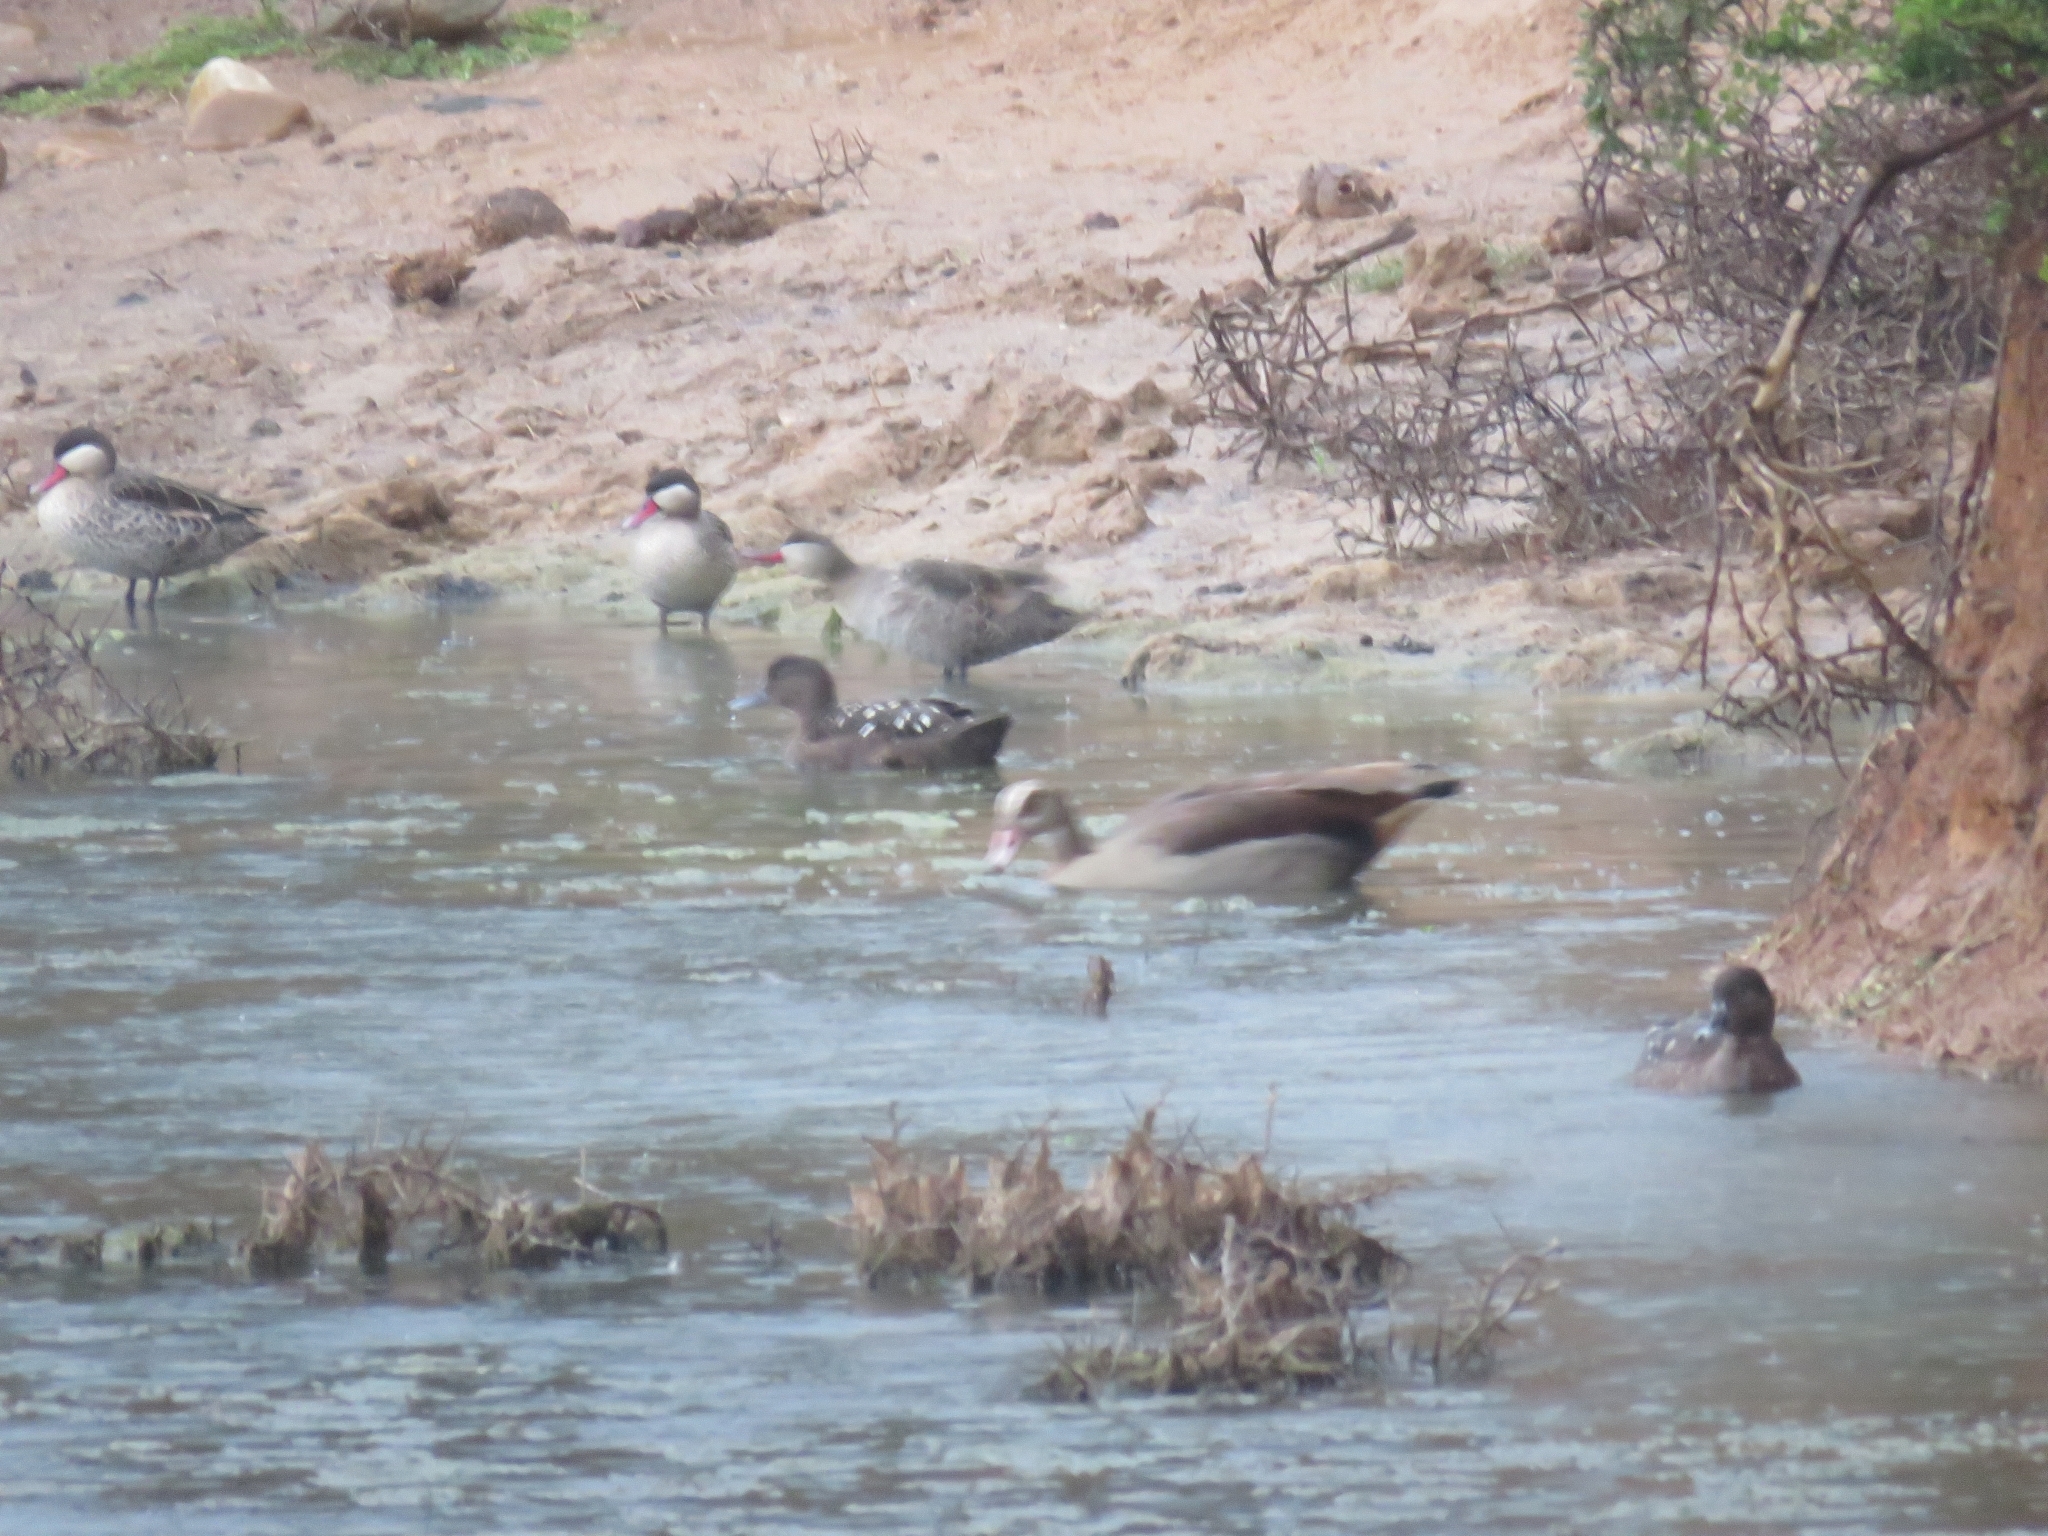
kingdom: Animalia
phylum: Chordata
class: Aves
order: Anseriformes
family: Anatidae
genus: Anas
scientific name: Anas sparsa
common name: African black duck
